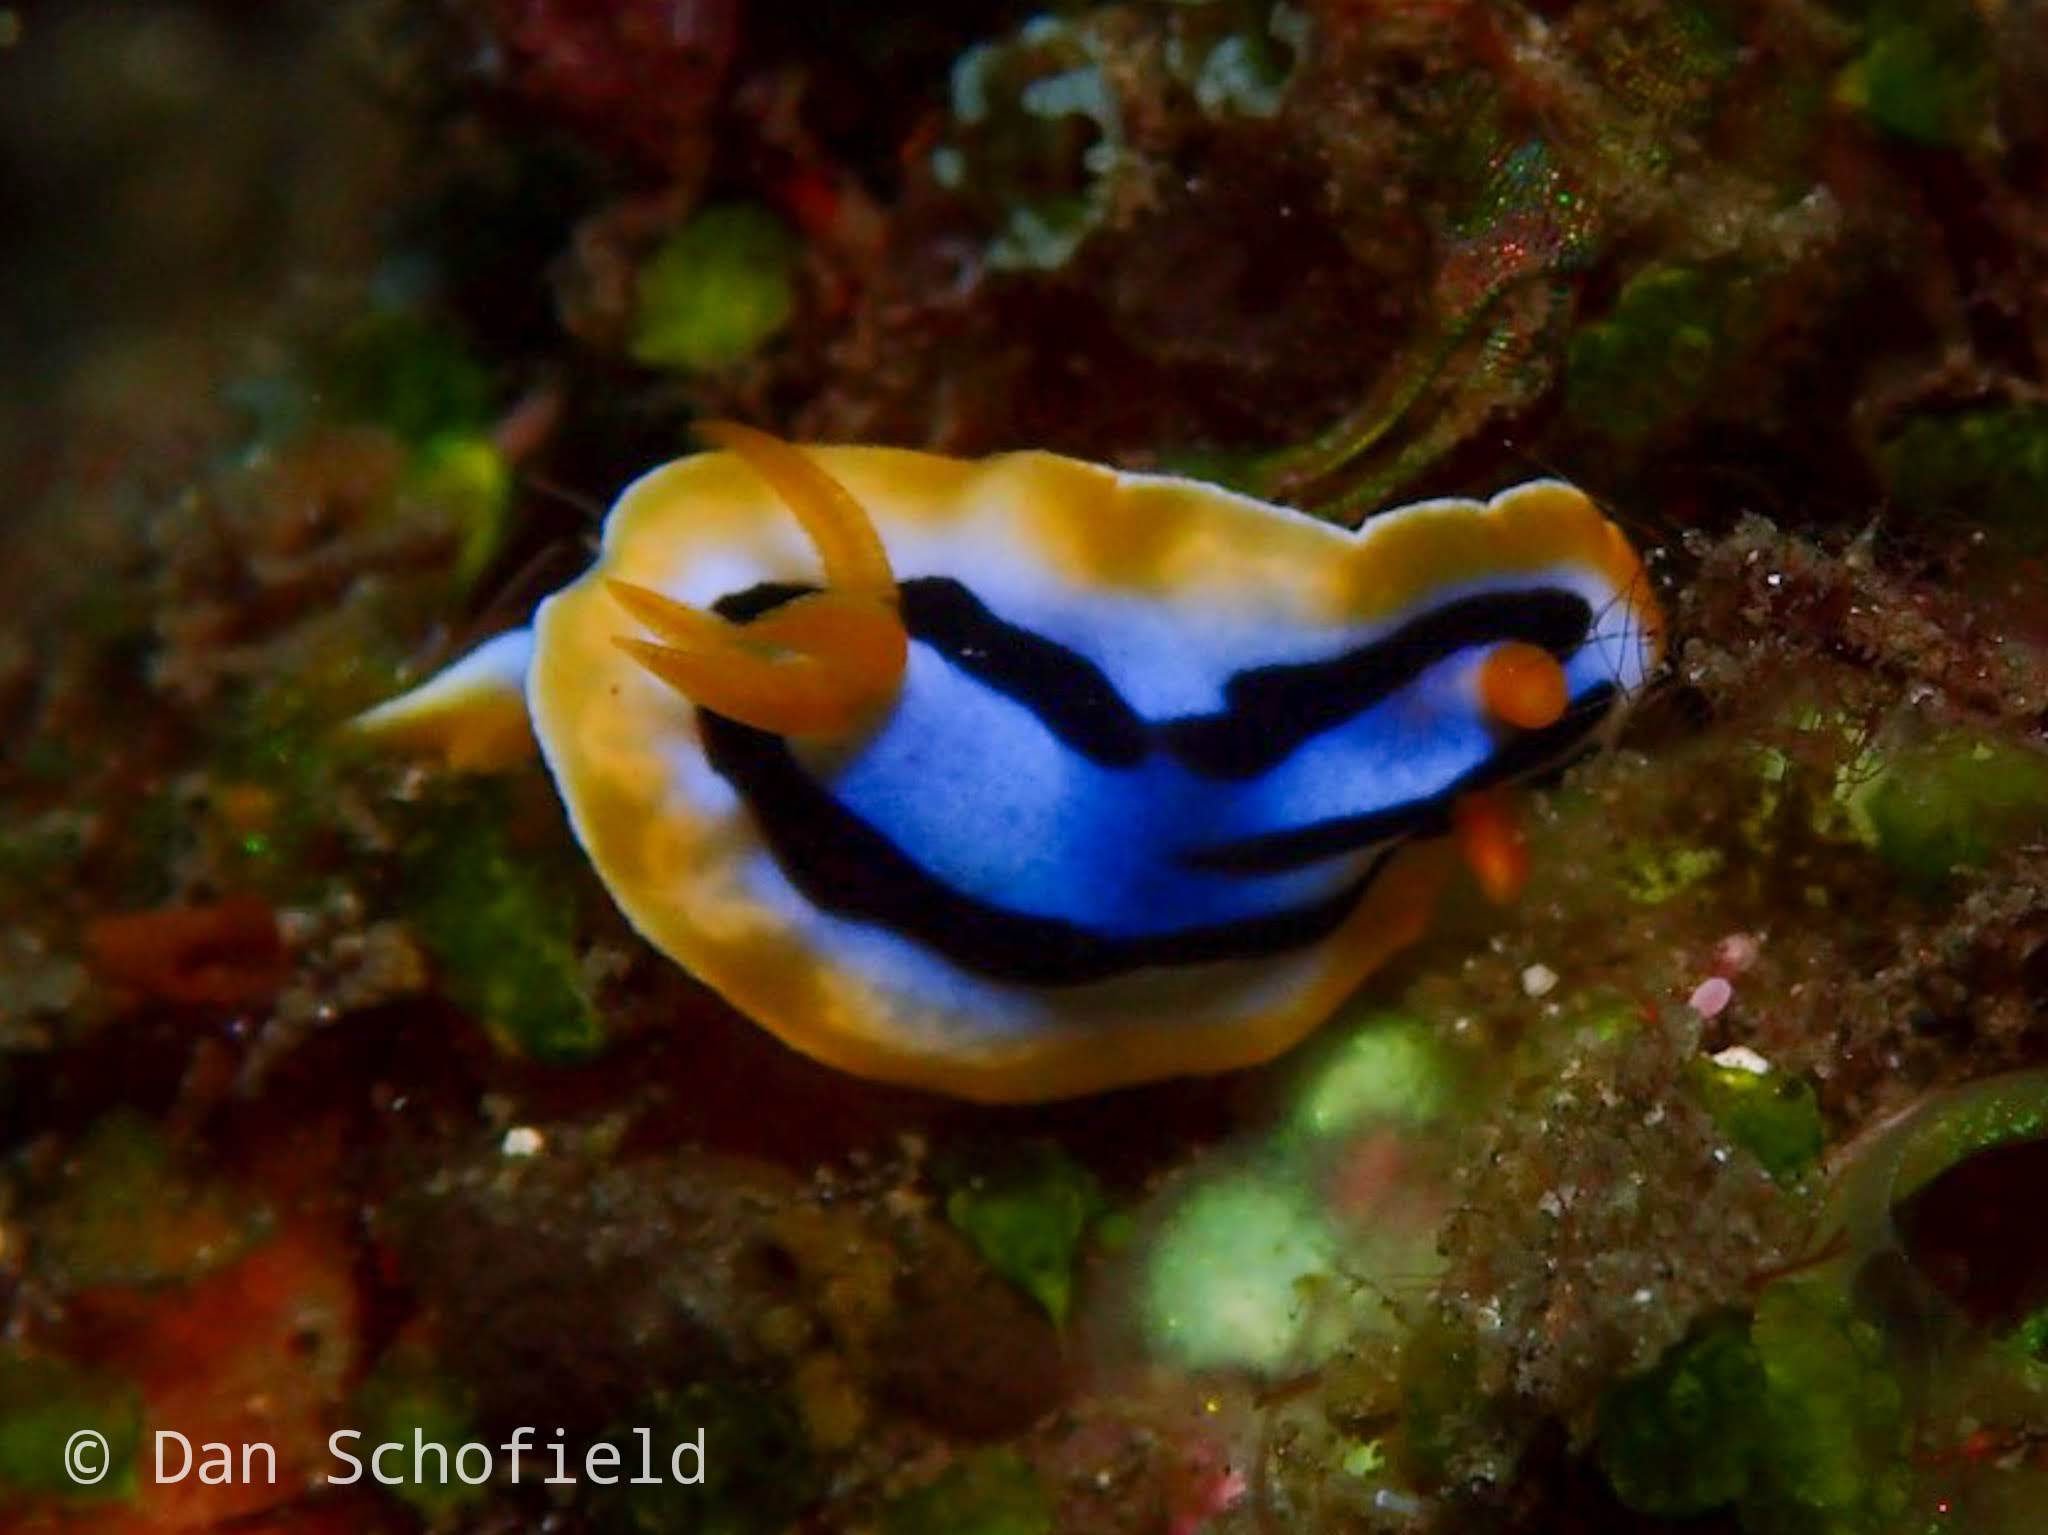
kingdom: Animalia
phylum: Mollusca
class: Gastropoda
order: Nudibranchia
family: Chromodorididae
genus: Chromodoris
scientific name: Chromodoris annae
